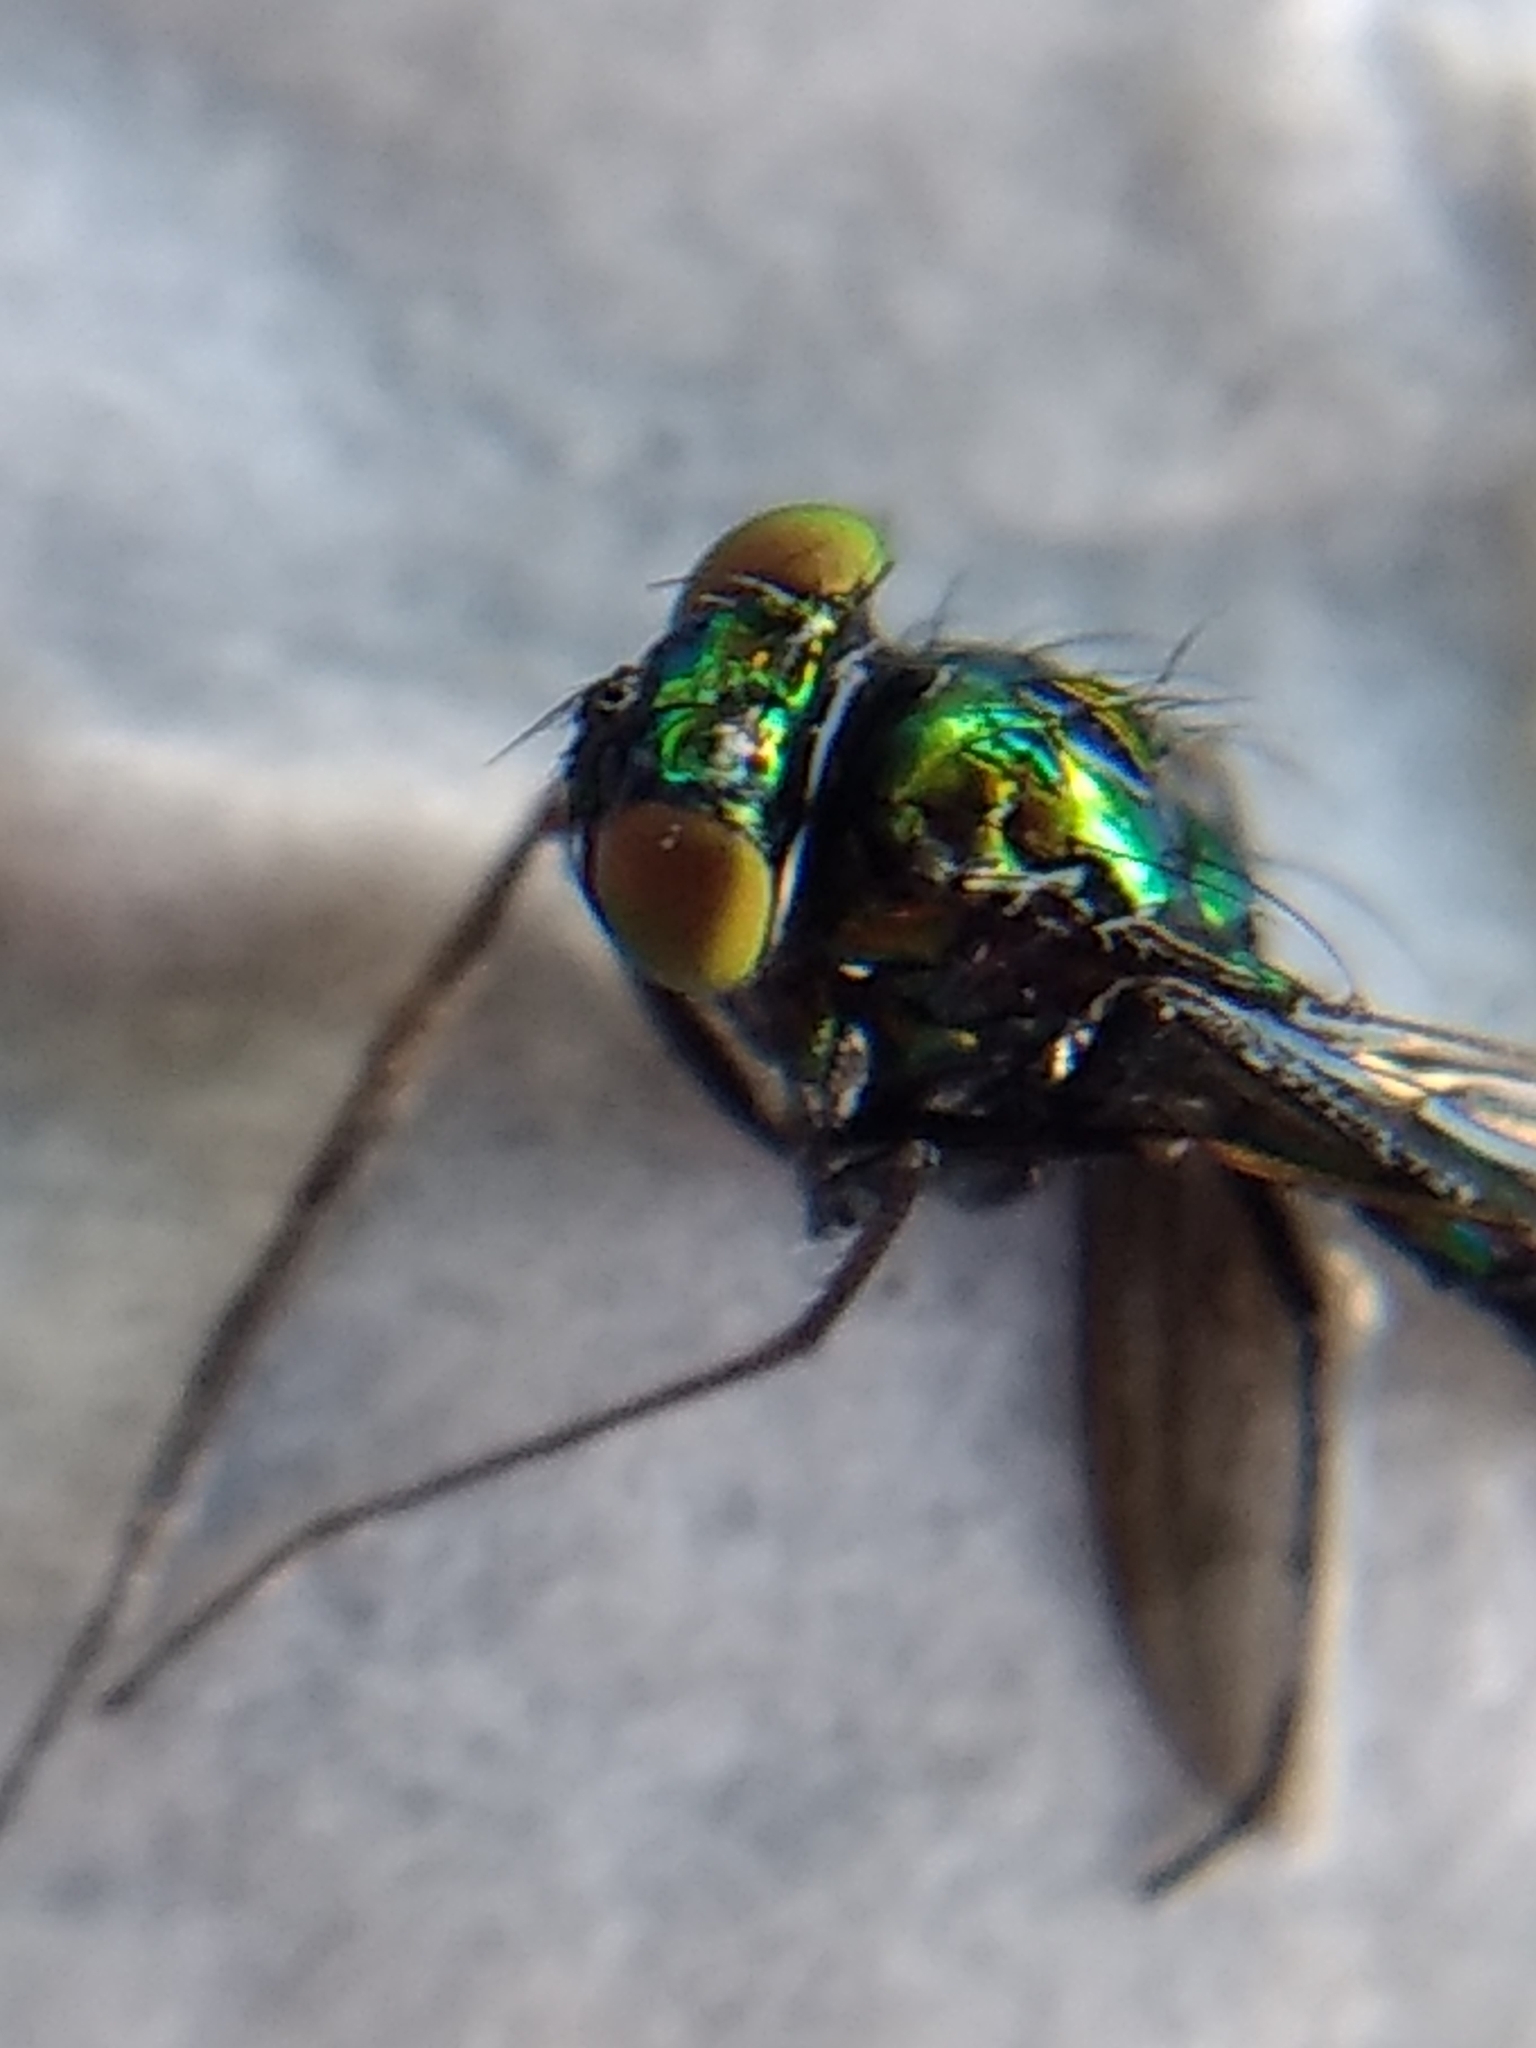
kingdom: Animalia
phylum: Arthropoda
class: Insecta
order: Diptera
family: Dolichopodidae
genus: Condylostylus
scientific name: Condylostylus longicornis
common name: Long-legged fly
